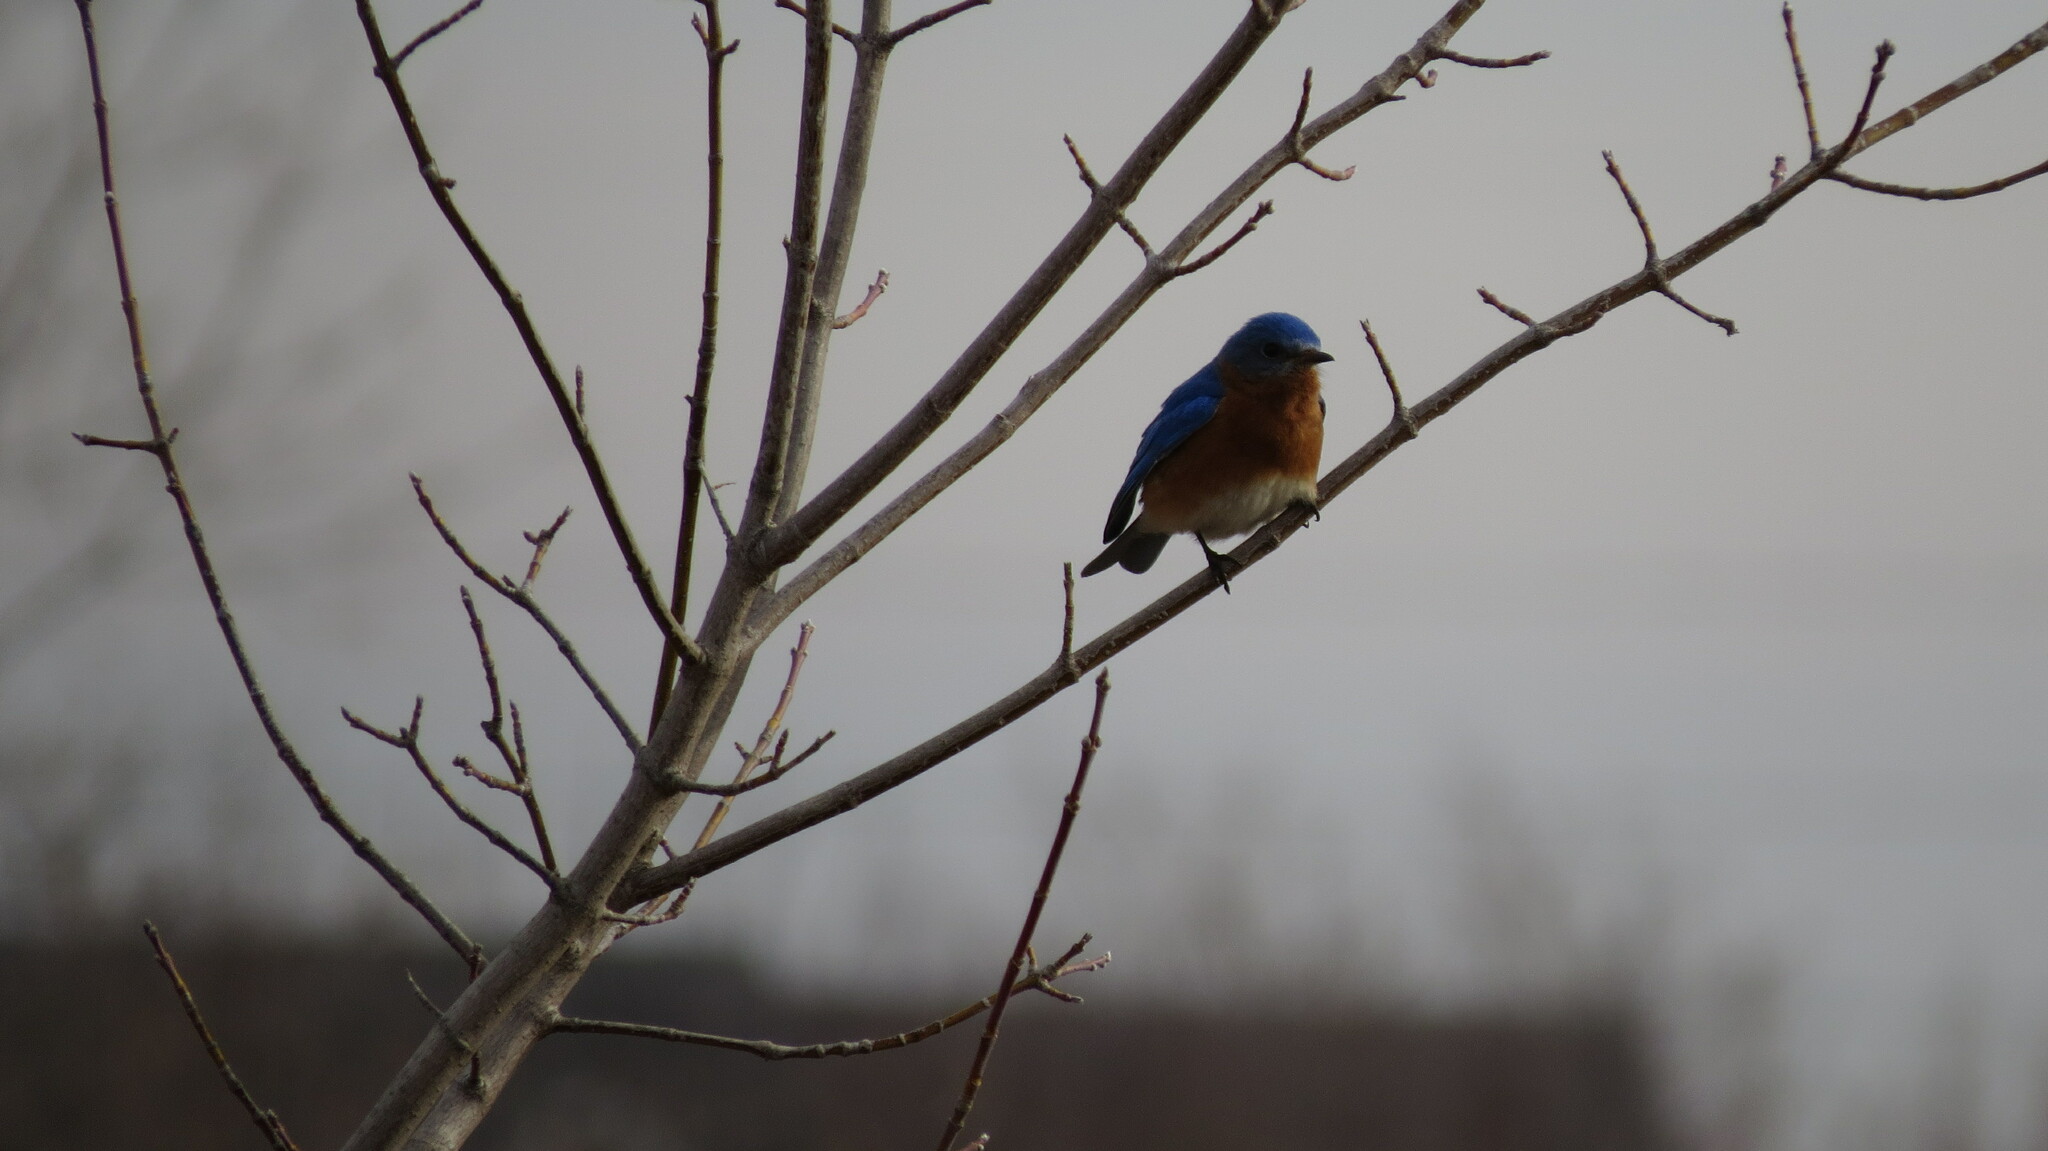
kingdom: Animalia
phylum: Chordata
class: Aves
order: Passeriformes
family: Turdidae
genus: Sialia
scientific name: Sialia sialis
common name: Eastern bluebird
